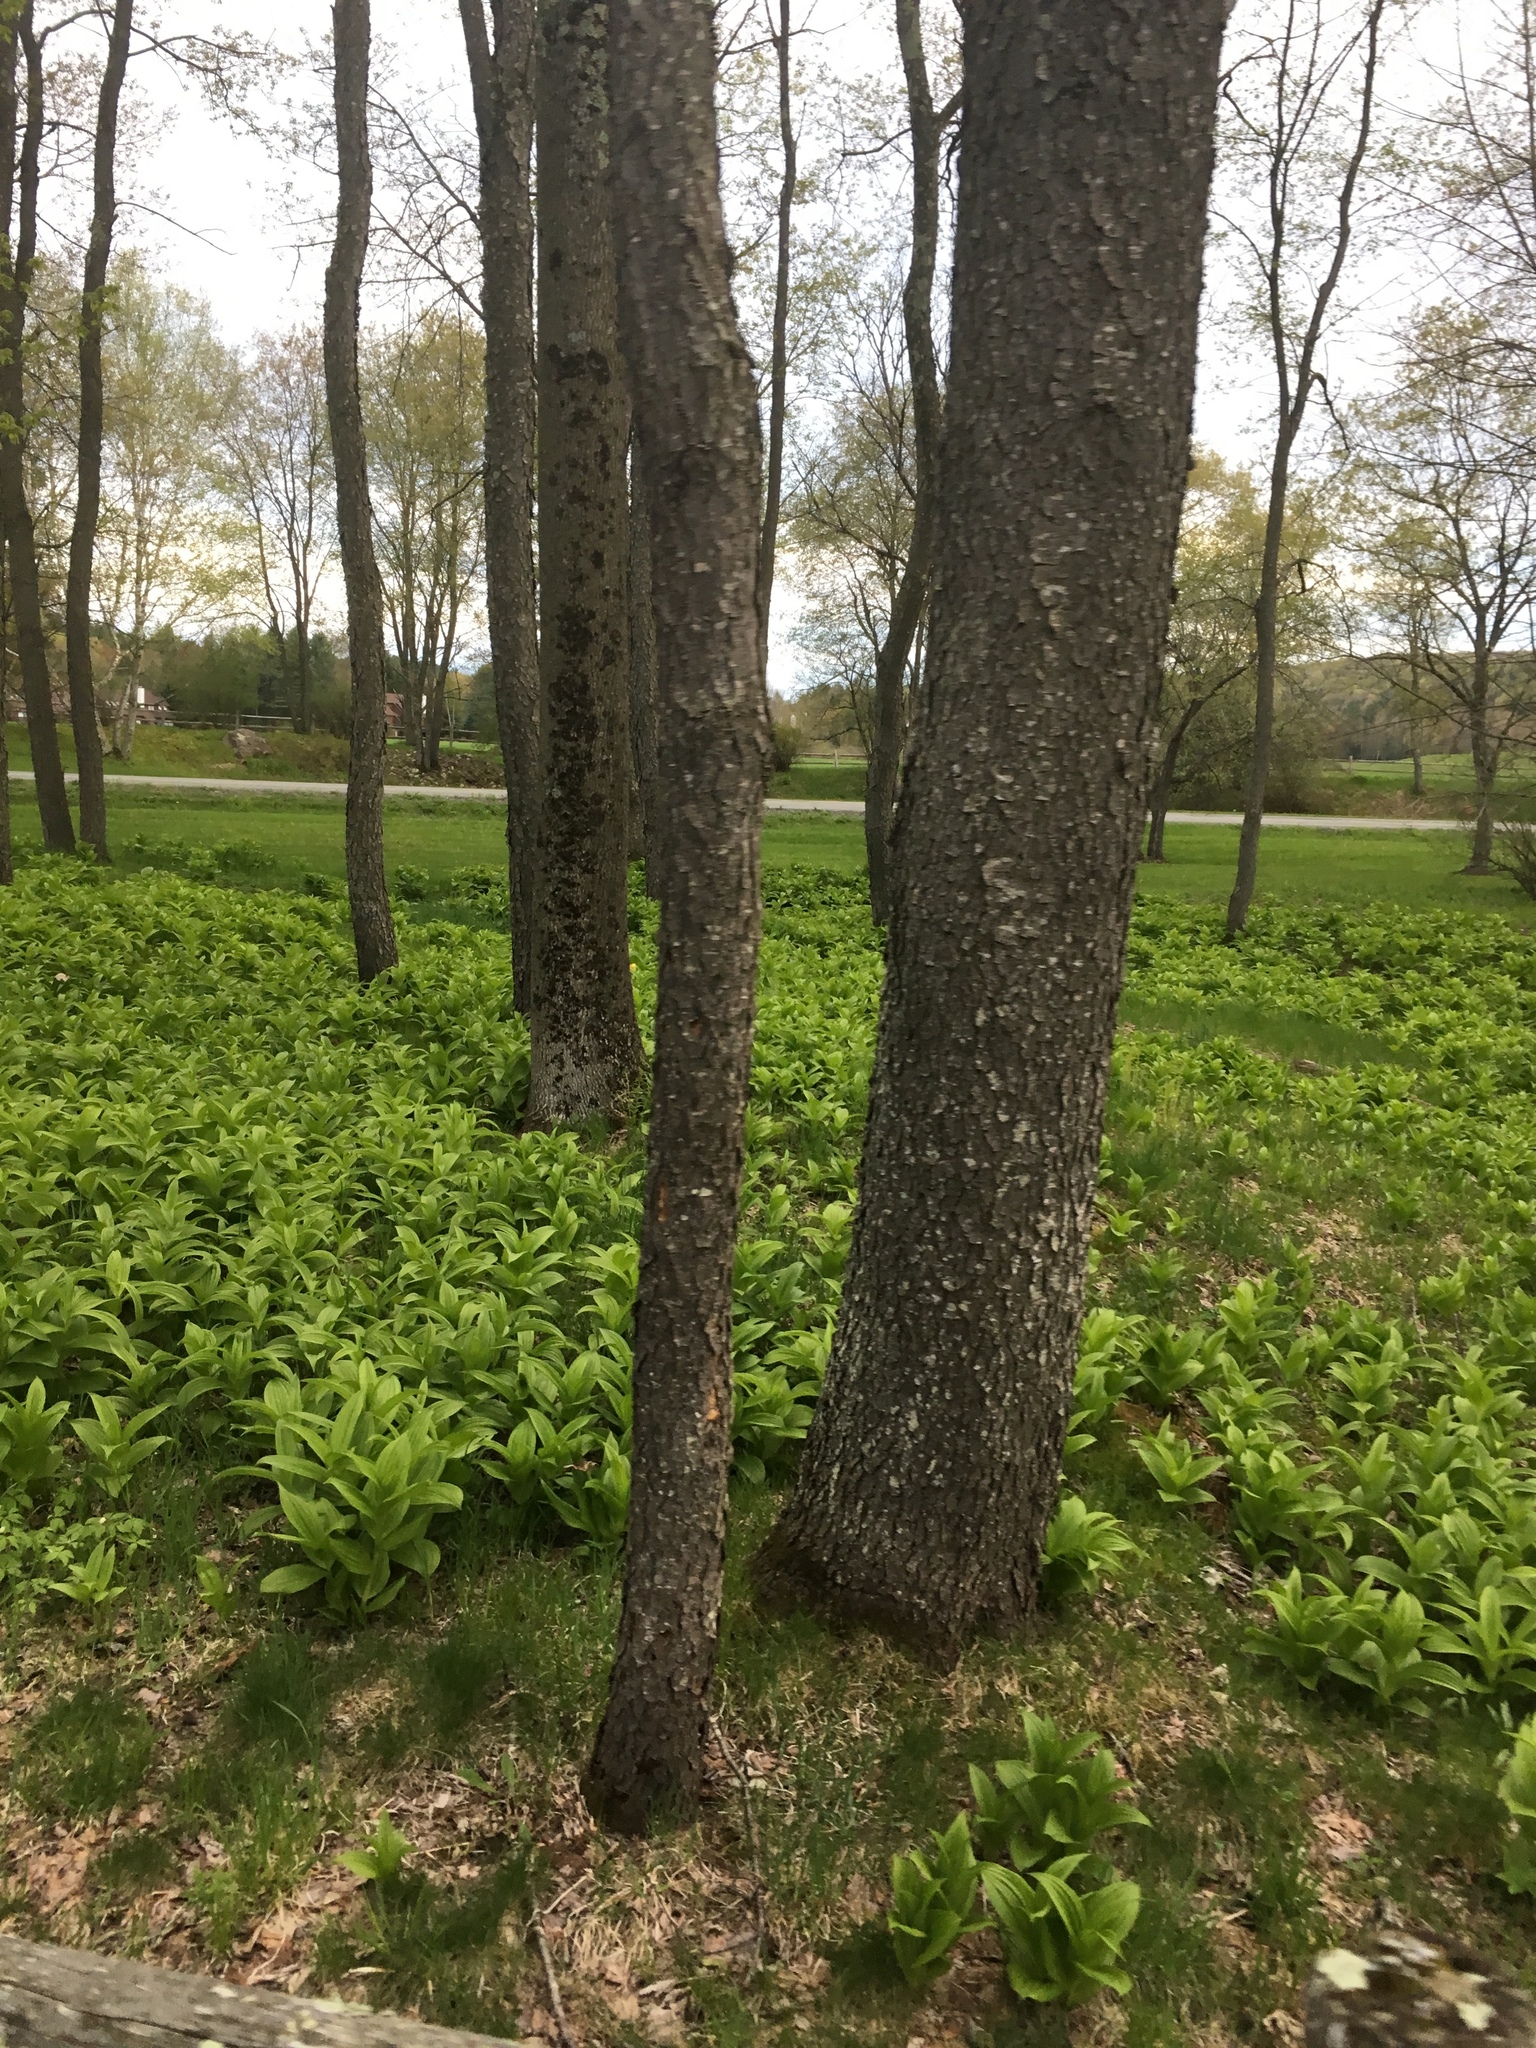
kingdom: Plantae
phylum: Tracheophyta
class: Magnoliopsida
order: Rosales
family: Rosaceae
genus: Prunus
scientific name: Prunus serotina
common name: Black cherry
